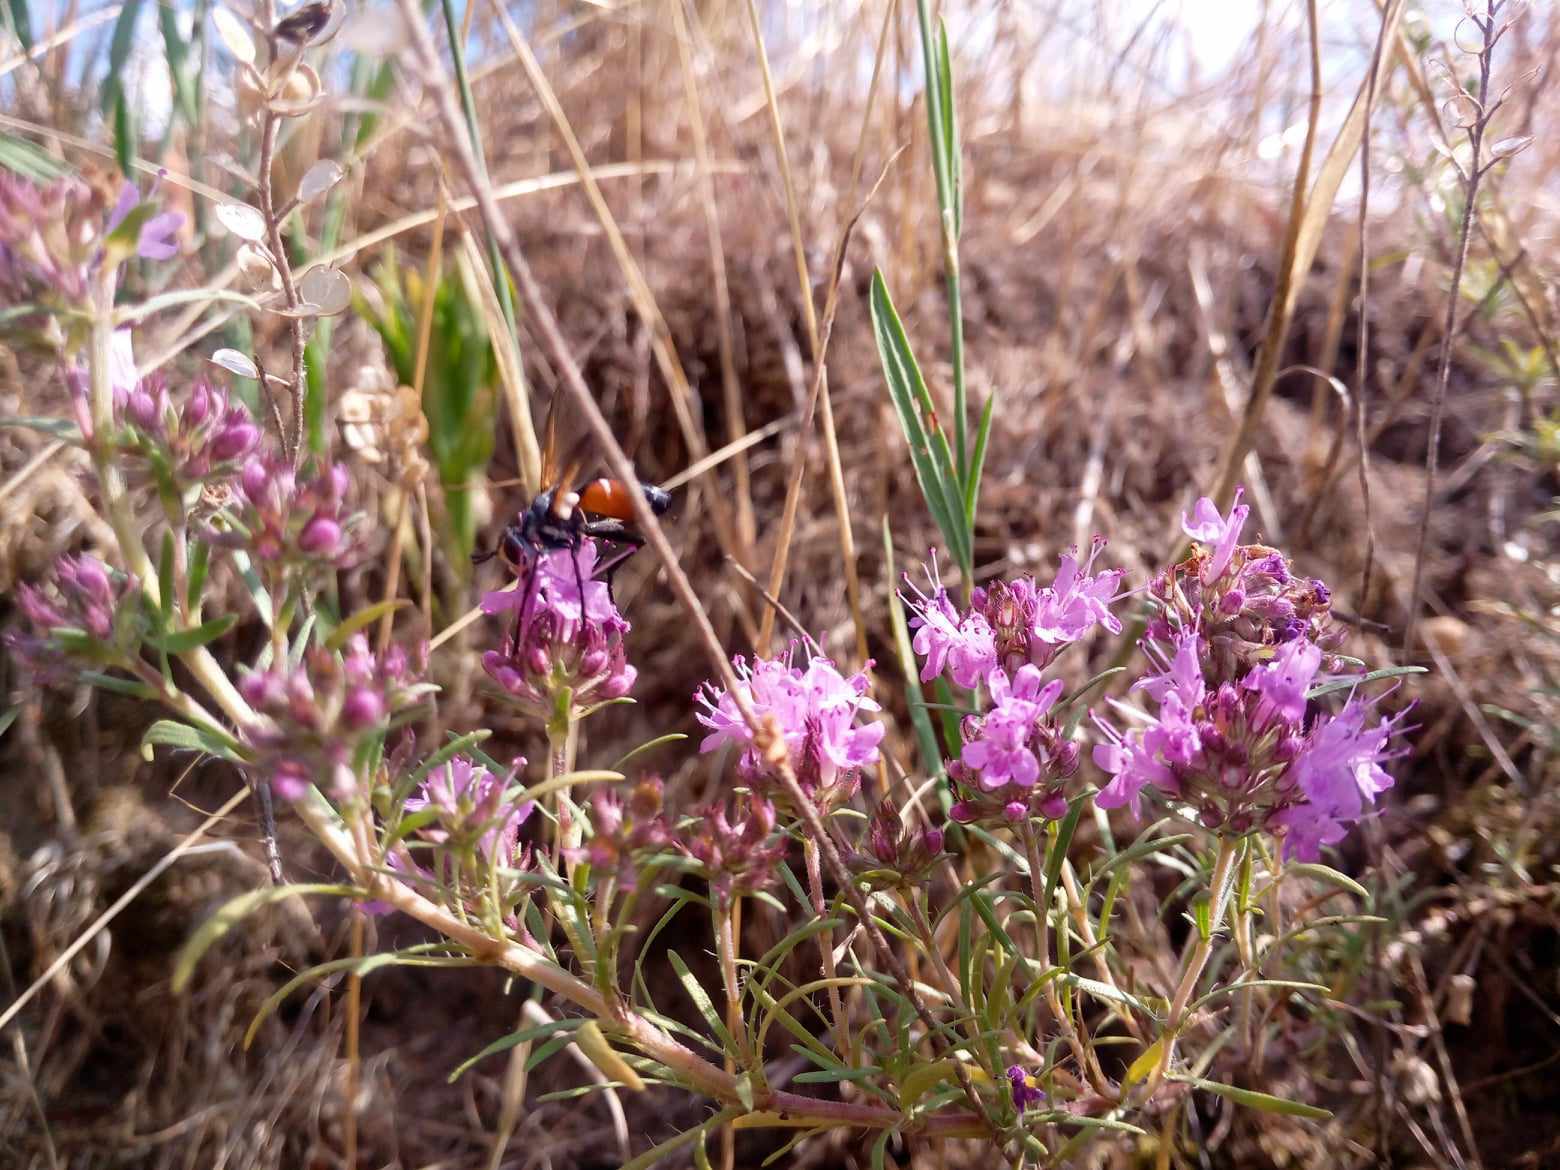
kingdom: Plantae
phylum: Tracheophyta
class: Magnoliopsida
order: Lamiales
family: Lamiaceae
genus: Thymus
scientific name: Thymus pallasianus
